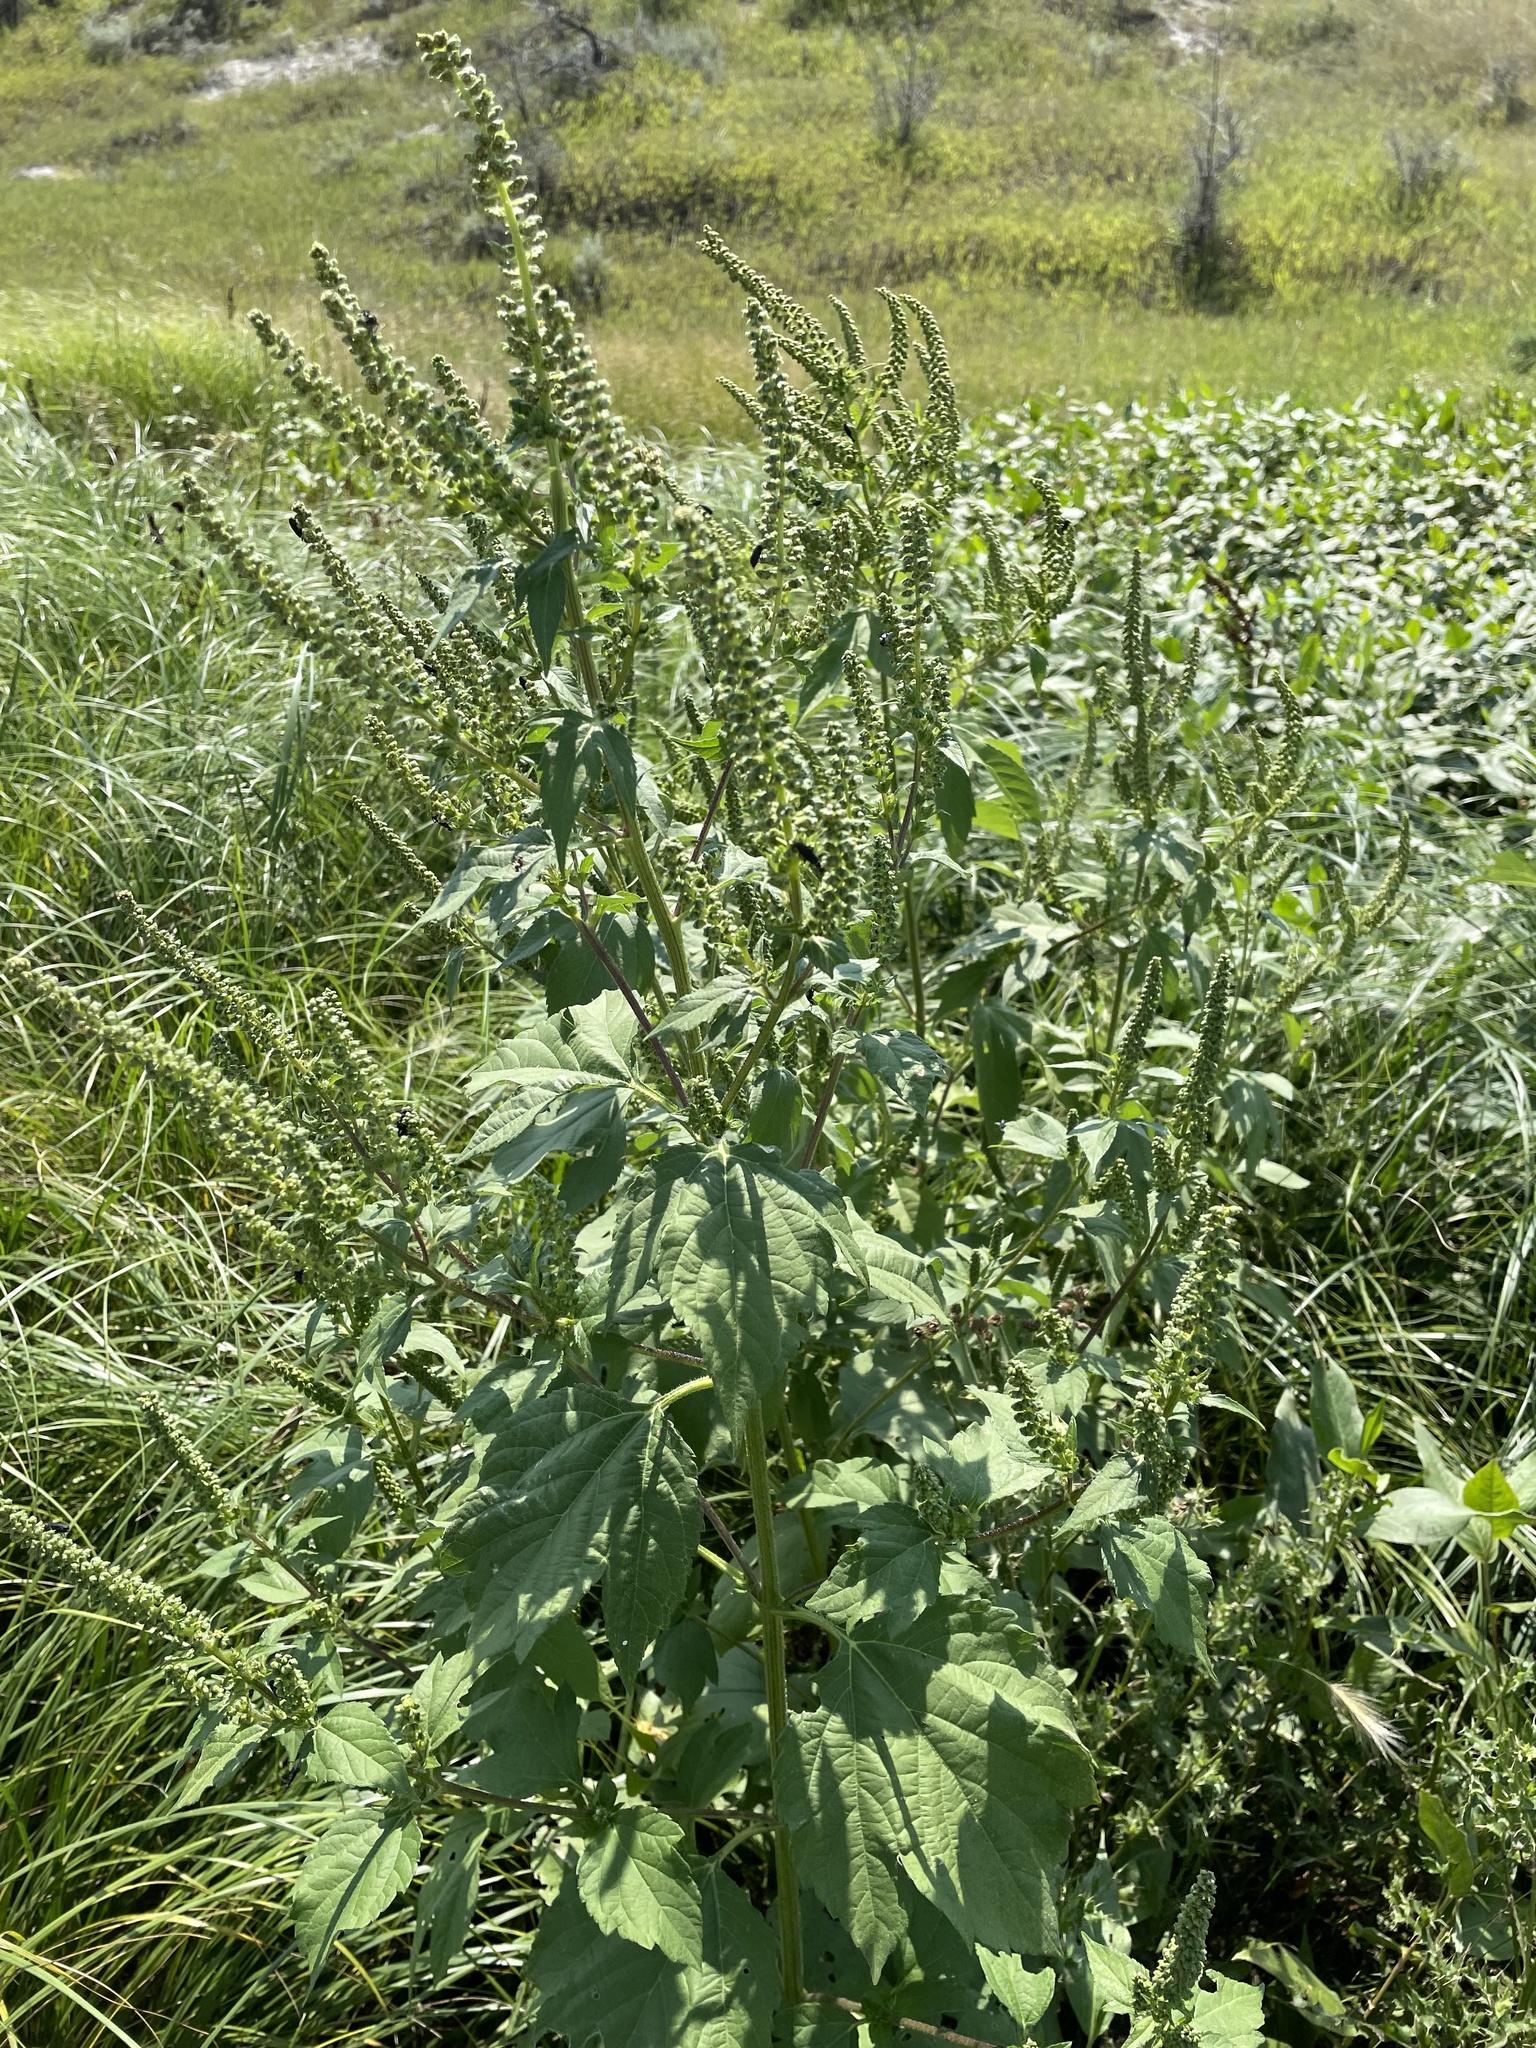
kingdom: Plantae
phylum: Tracheophyta
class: Magnoliopsida
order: Asterales
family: Asteraceae
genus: Ambrosia
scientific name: Ambrosia trifida
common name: Giant ragweed
